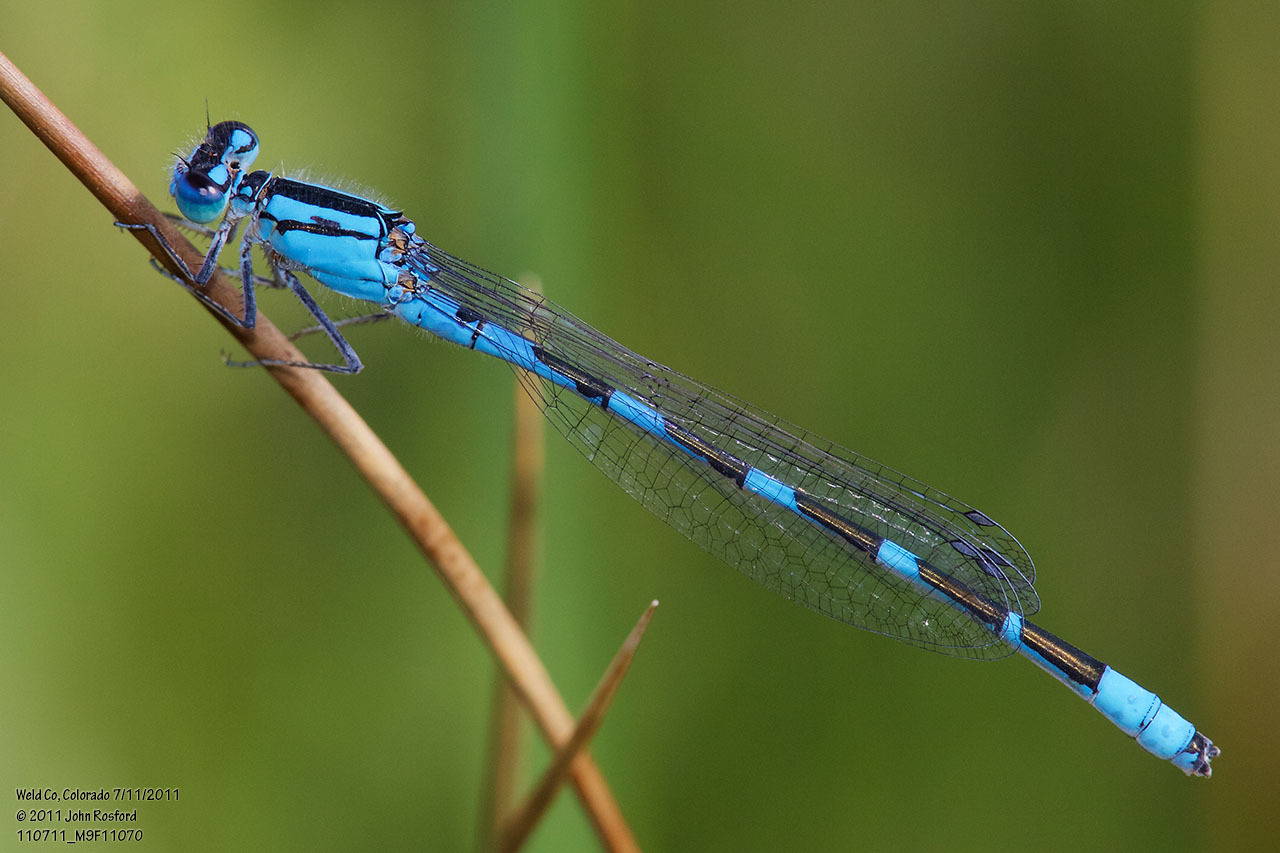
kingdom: Animalia
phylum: Arthropoda
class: Insecta
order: Odonata
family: Coenagrionidae
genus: Enallagma
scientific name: Enallagma carunculatum
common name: Tule bluet
